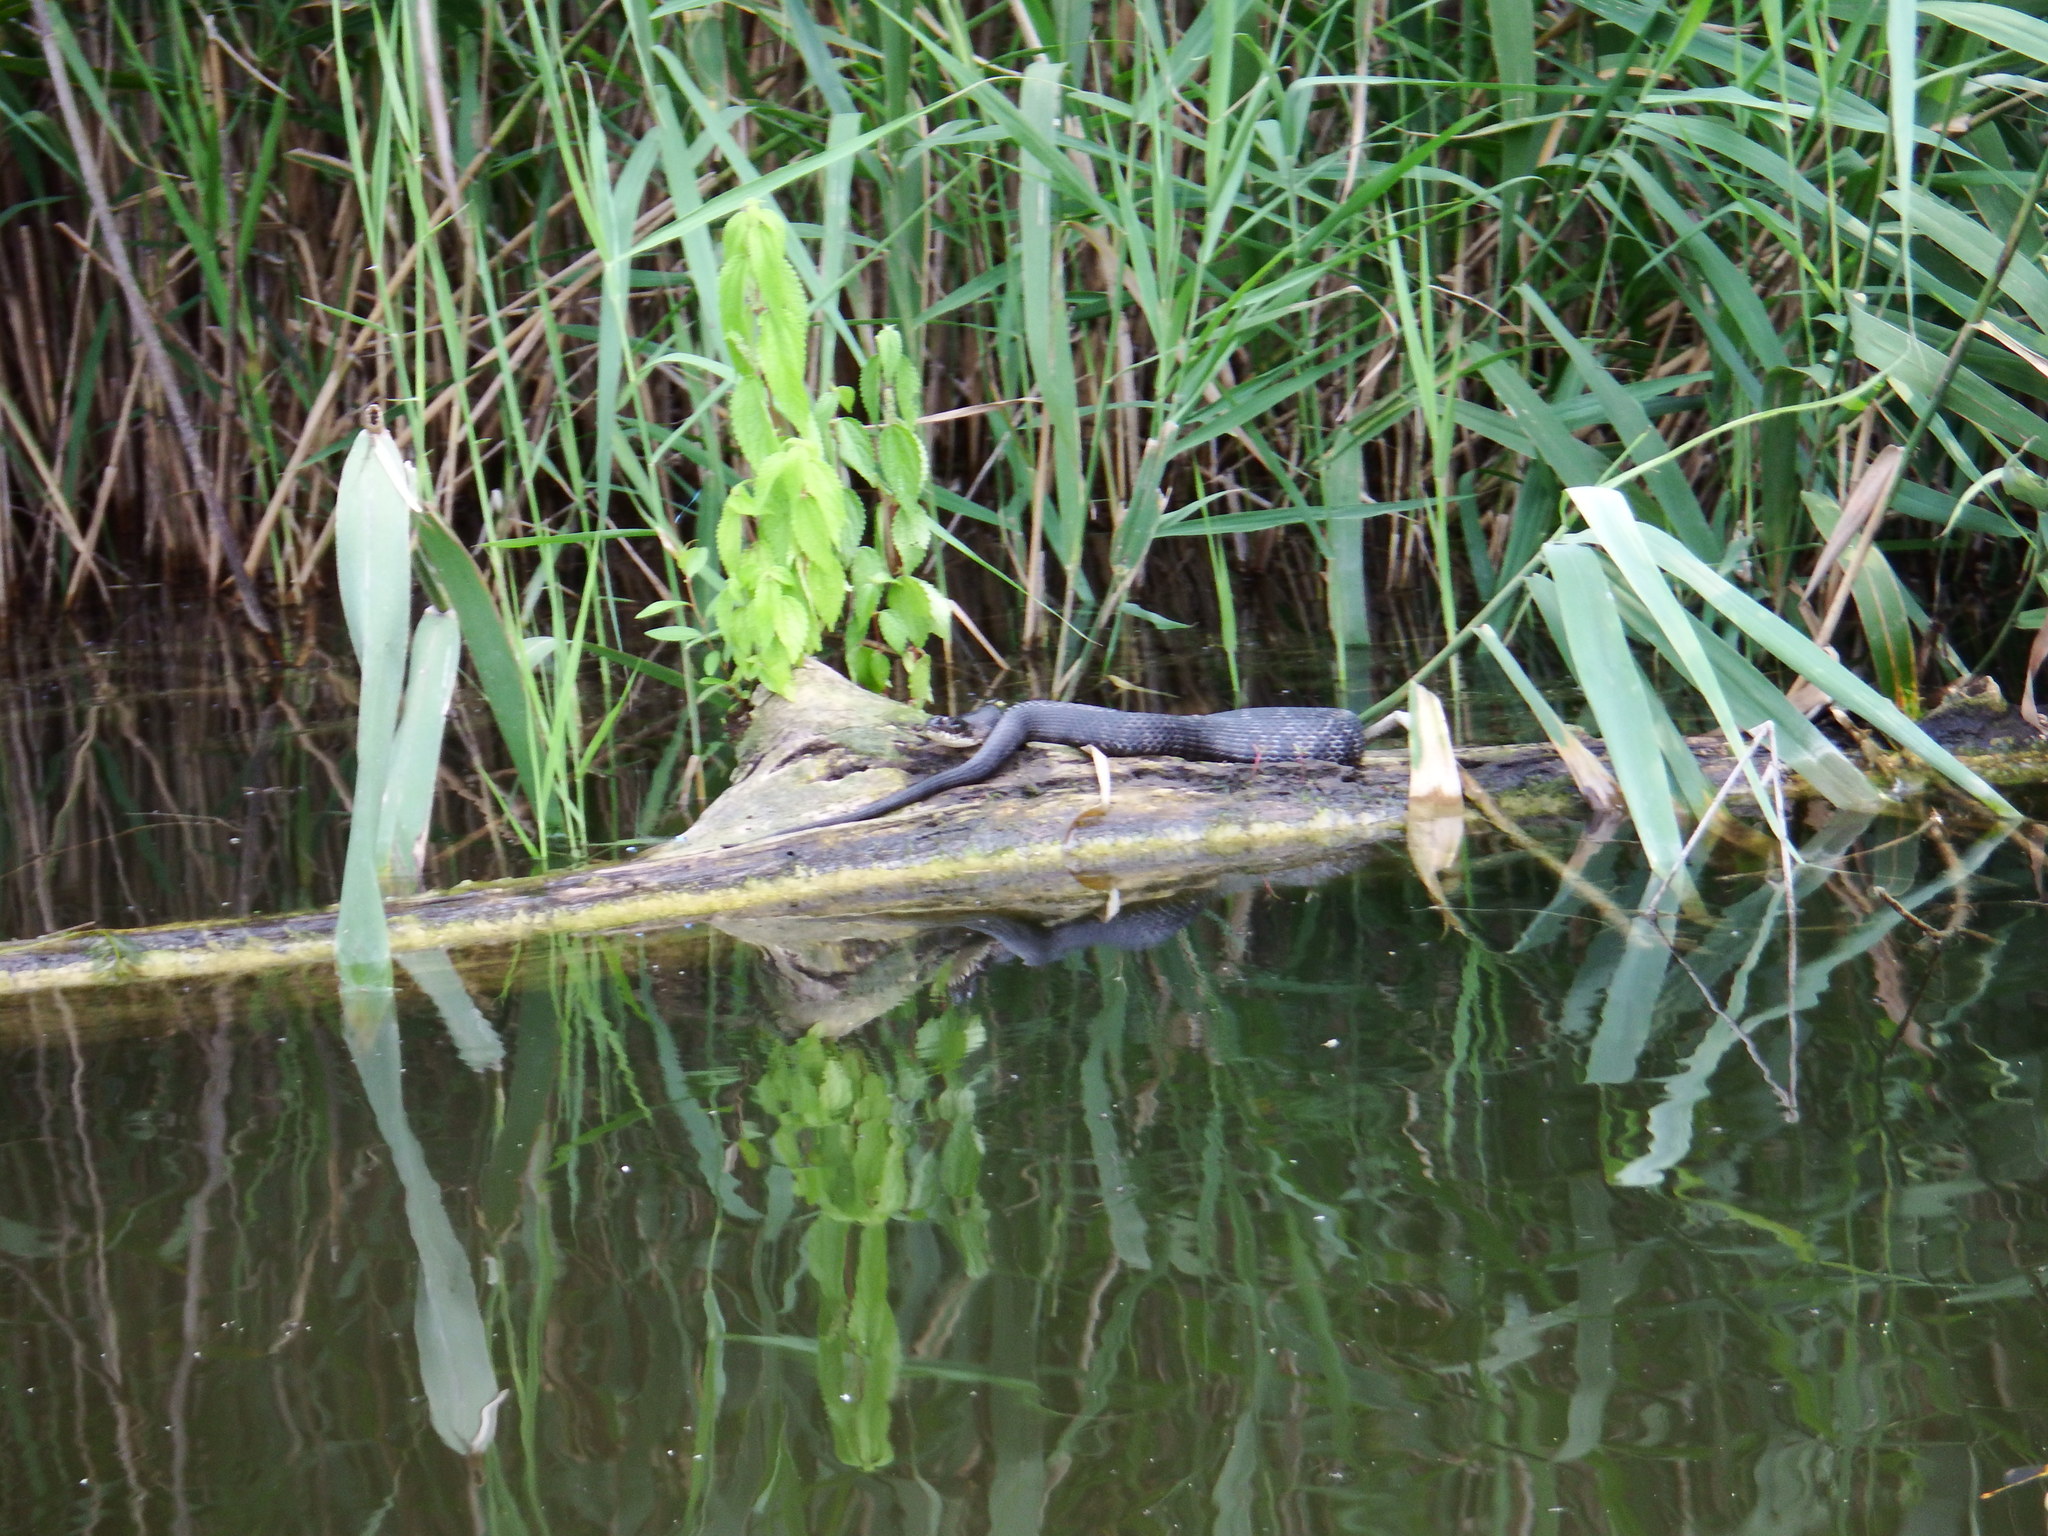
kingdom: Animalia
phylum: Chordata
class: Squamata
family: Colubridae
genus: Nerodia
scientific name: Nerodia sipedon
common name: Northern water snake
